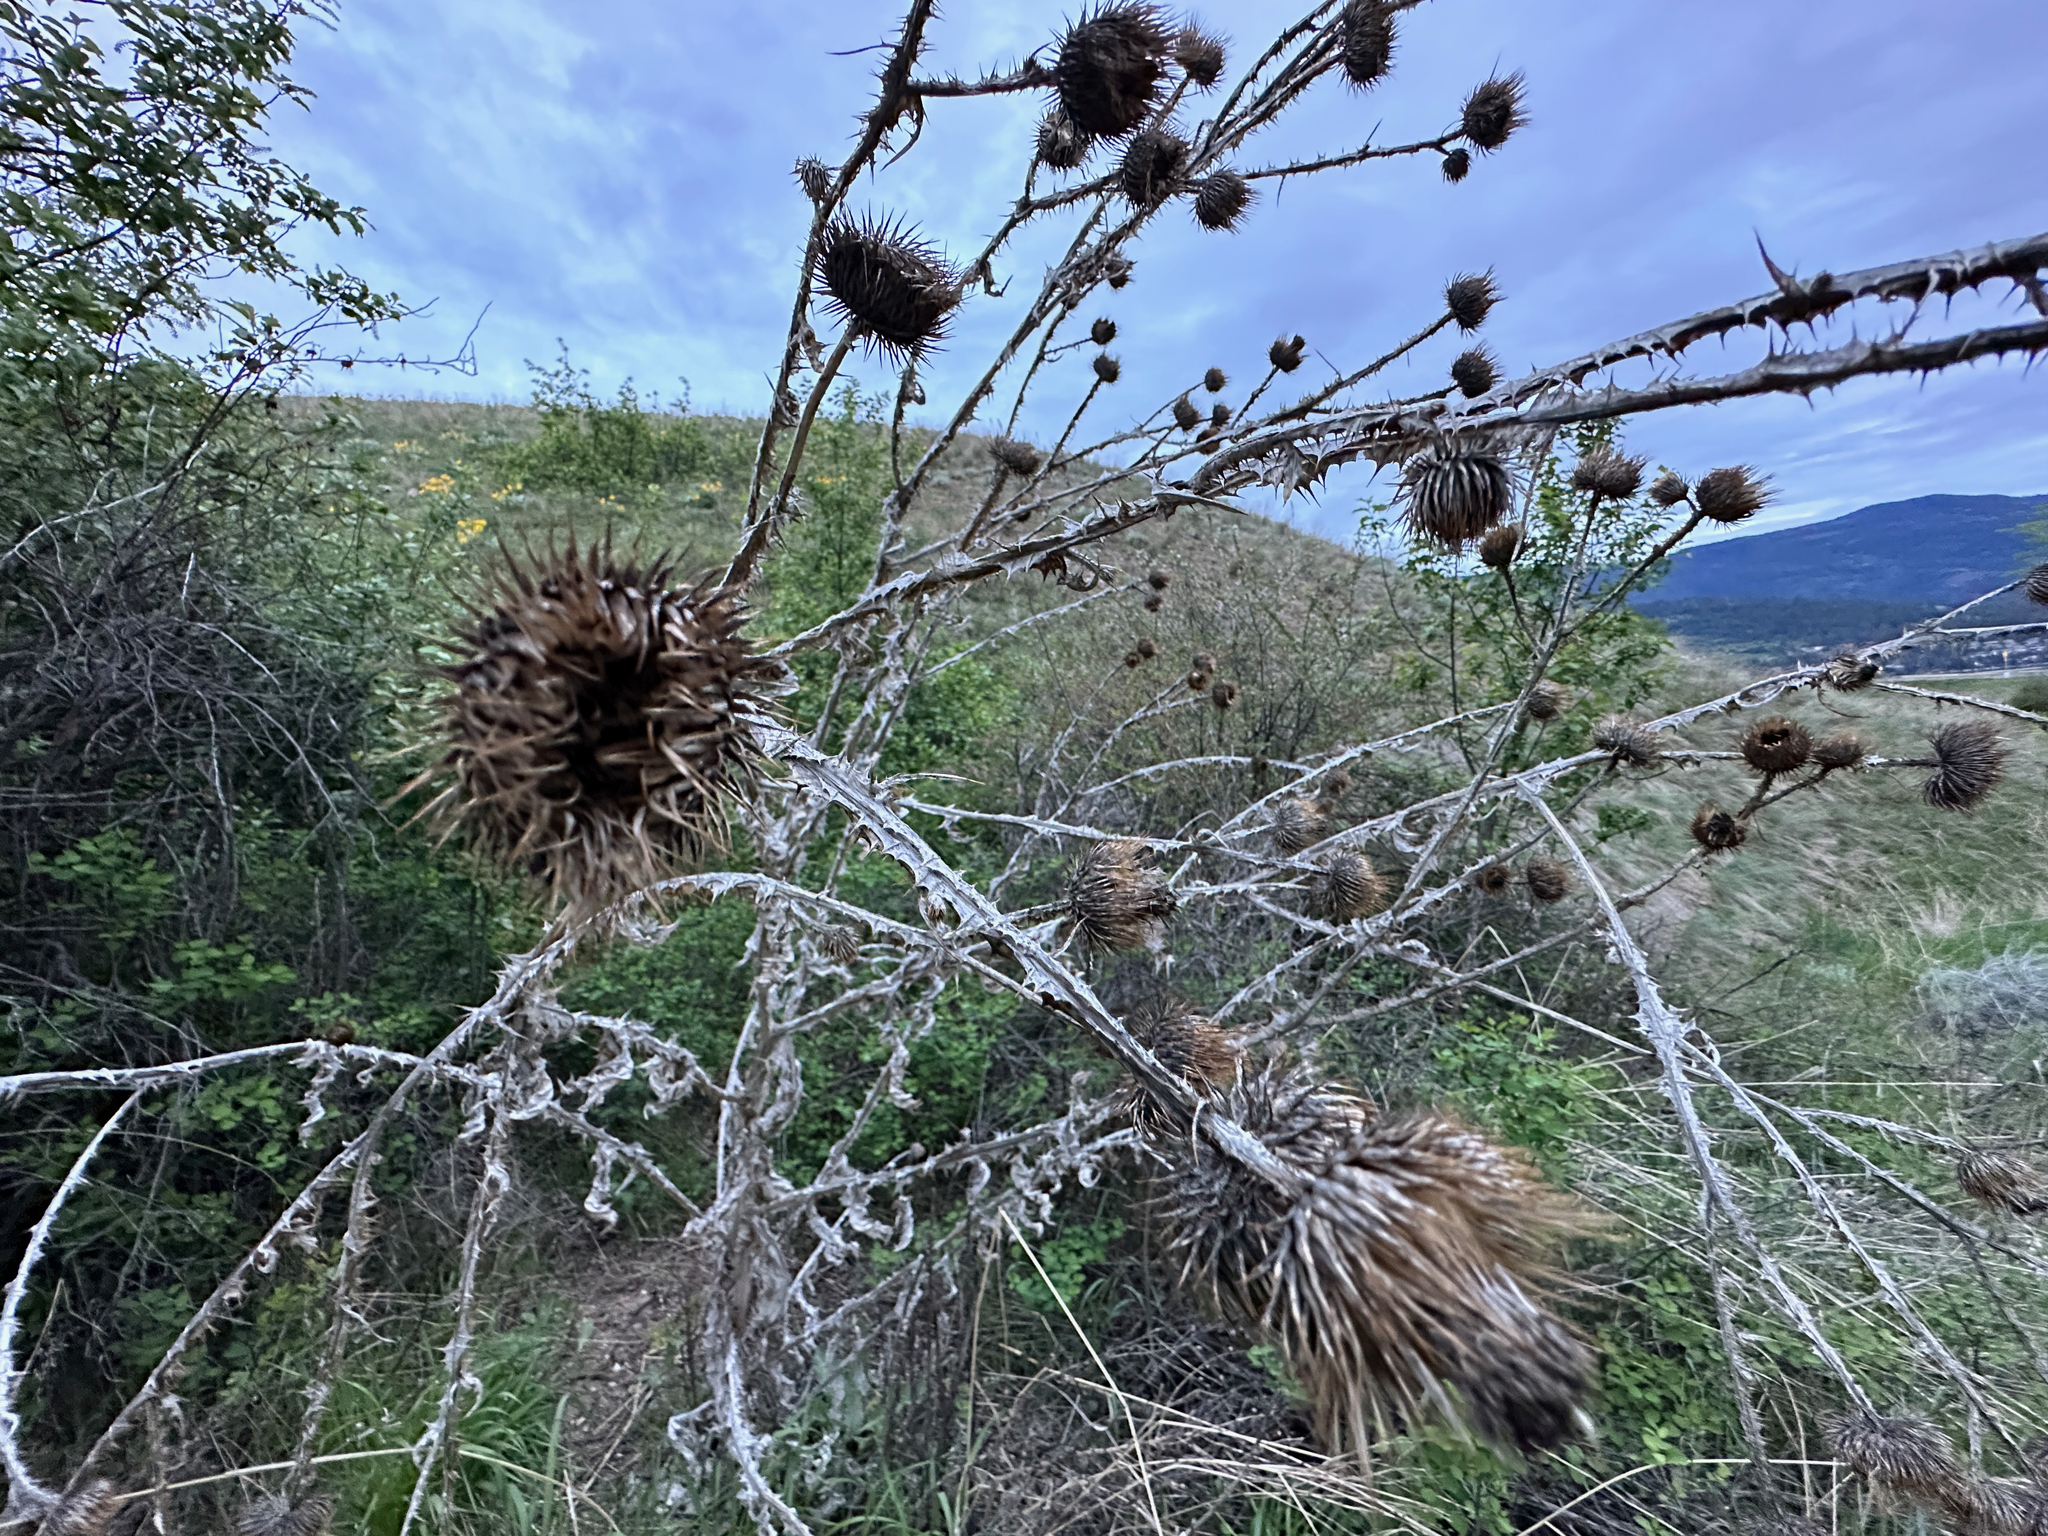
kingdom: Plantae
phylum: Tracheophyta
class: Magnoliopsida
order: Asterales
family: Asteraceae
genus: Onopordum
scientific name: Onopordum acanthium
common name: Scotch thistle
